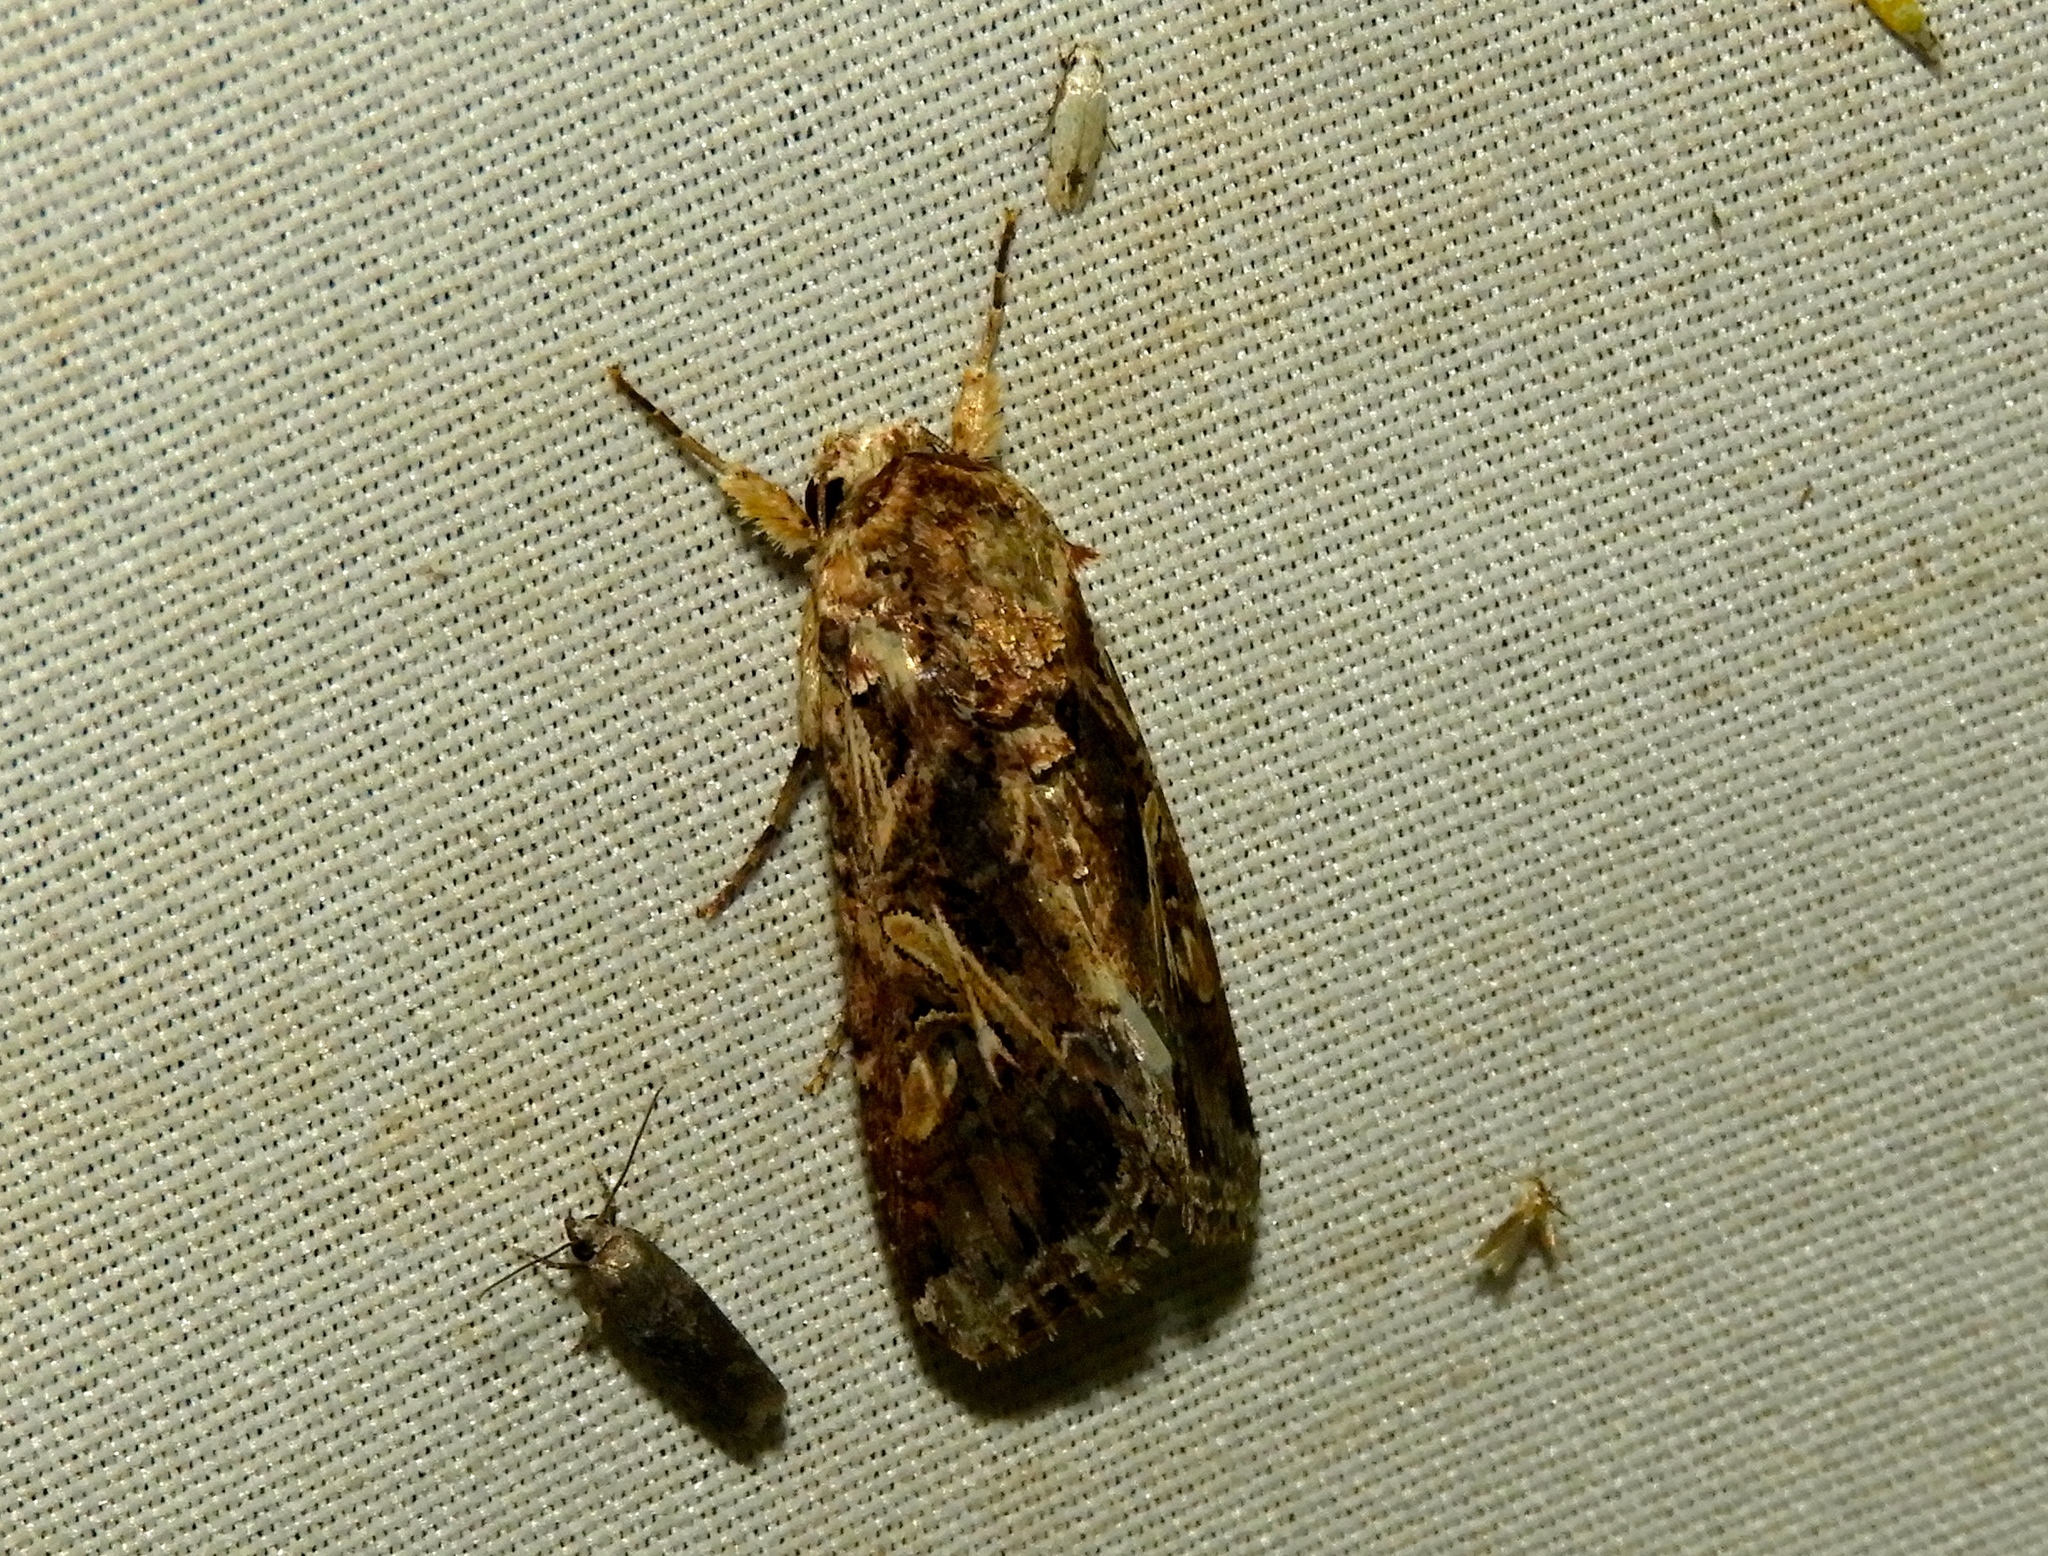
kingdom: Animalia
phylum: Arthropoda
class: Insecta
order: Lepidoptera
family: Noctuidae
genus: Spodoptera
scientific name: Spodoptera ornithogalli
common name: Yellow-striped armyworm
